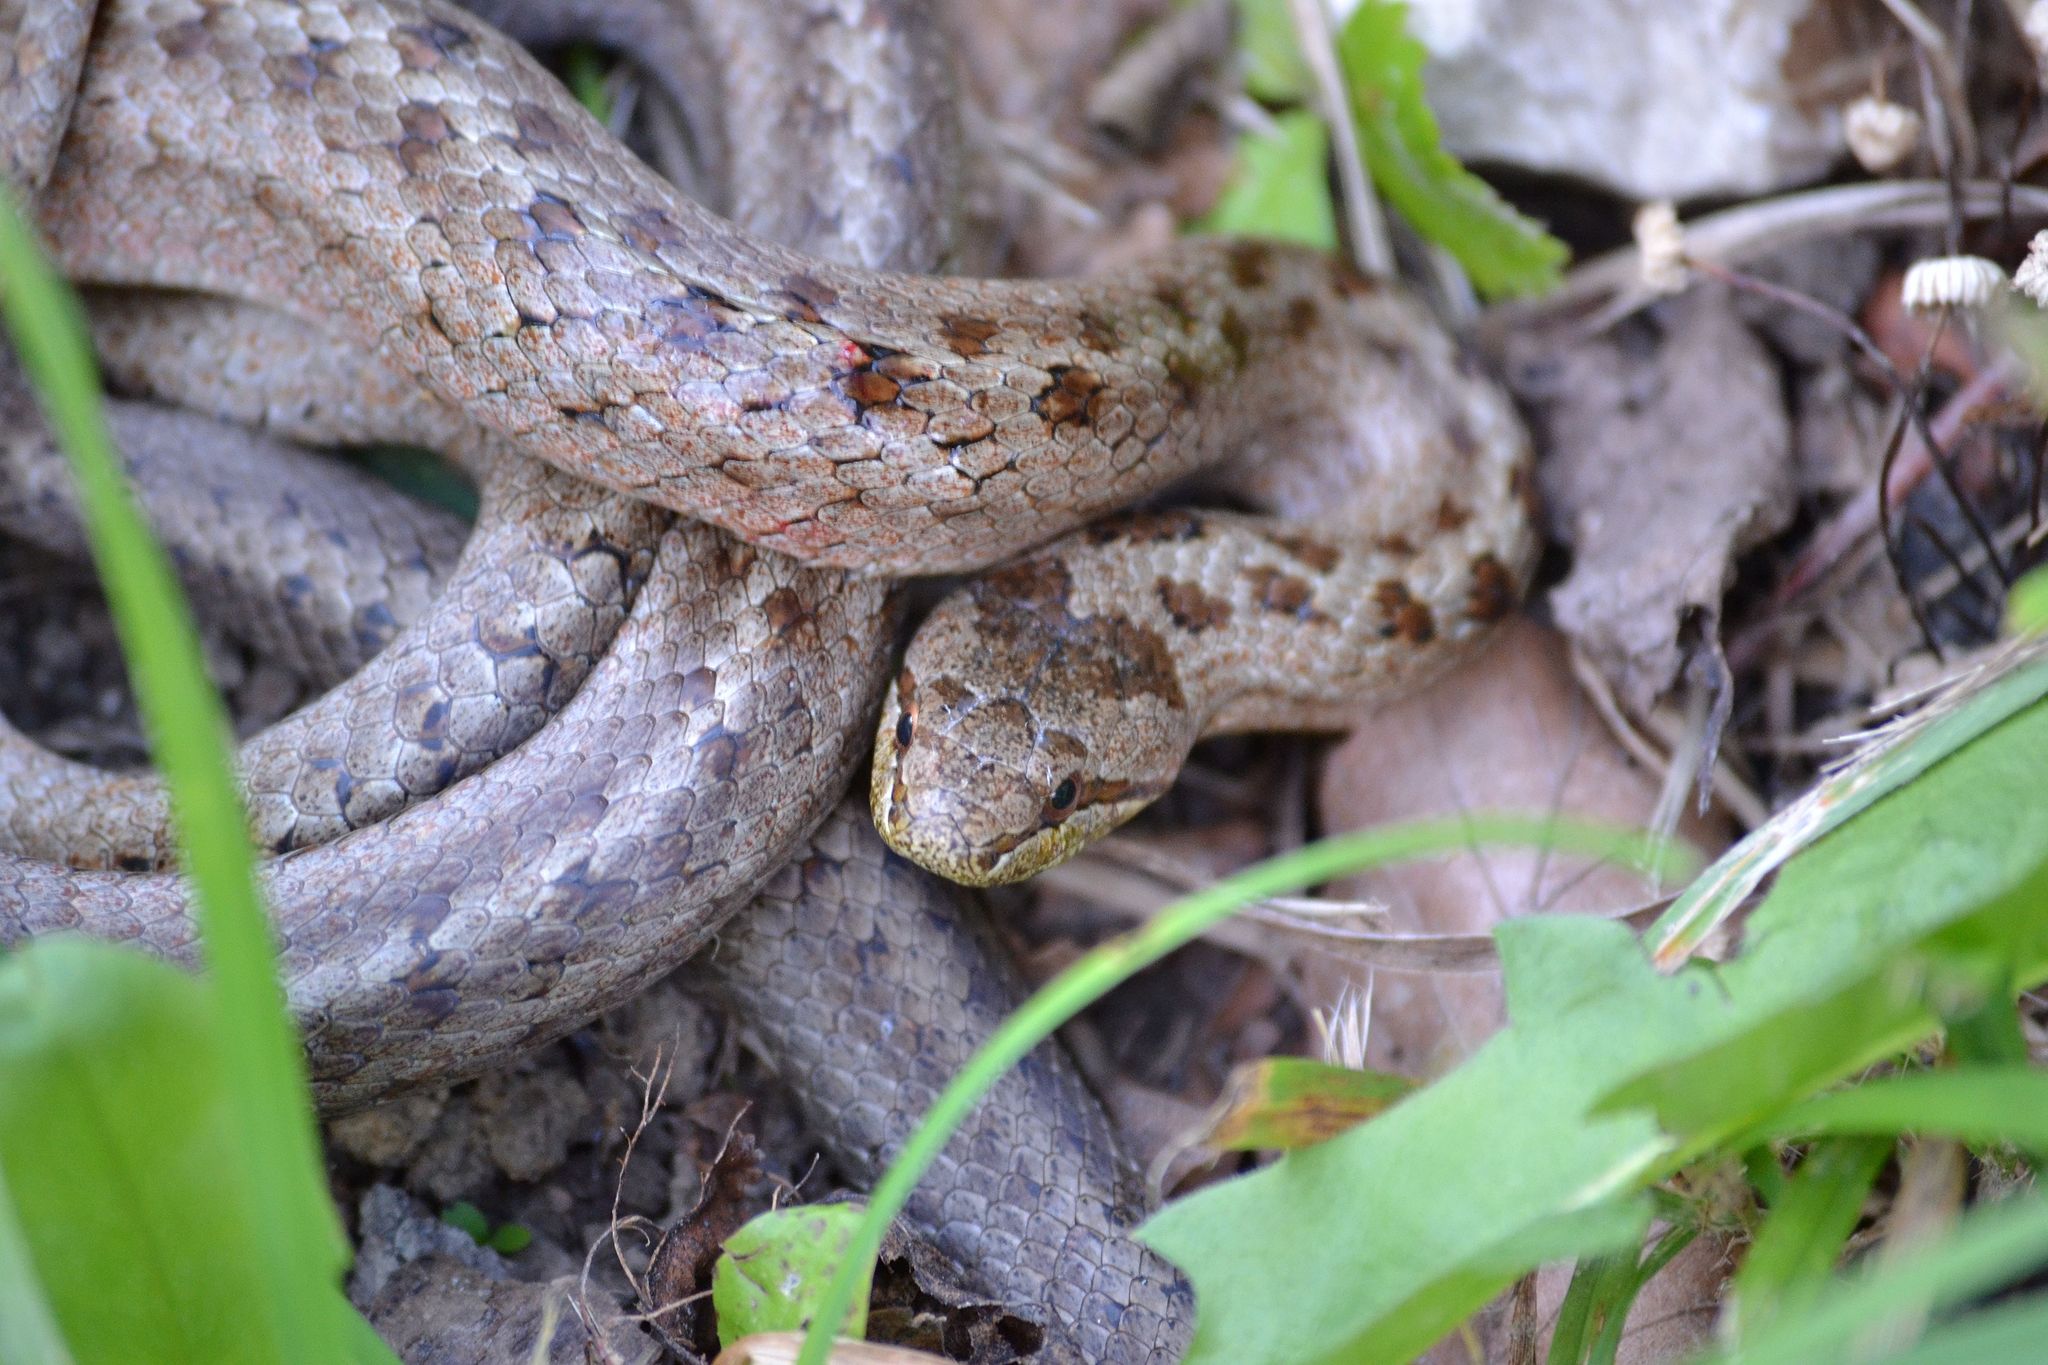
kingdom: Animalia
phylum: Chordata
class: Squamata
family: Colubridae
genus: Coronella
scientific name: Coronella austriaca
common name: Smooth snake
